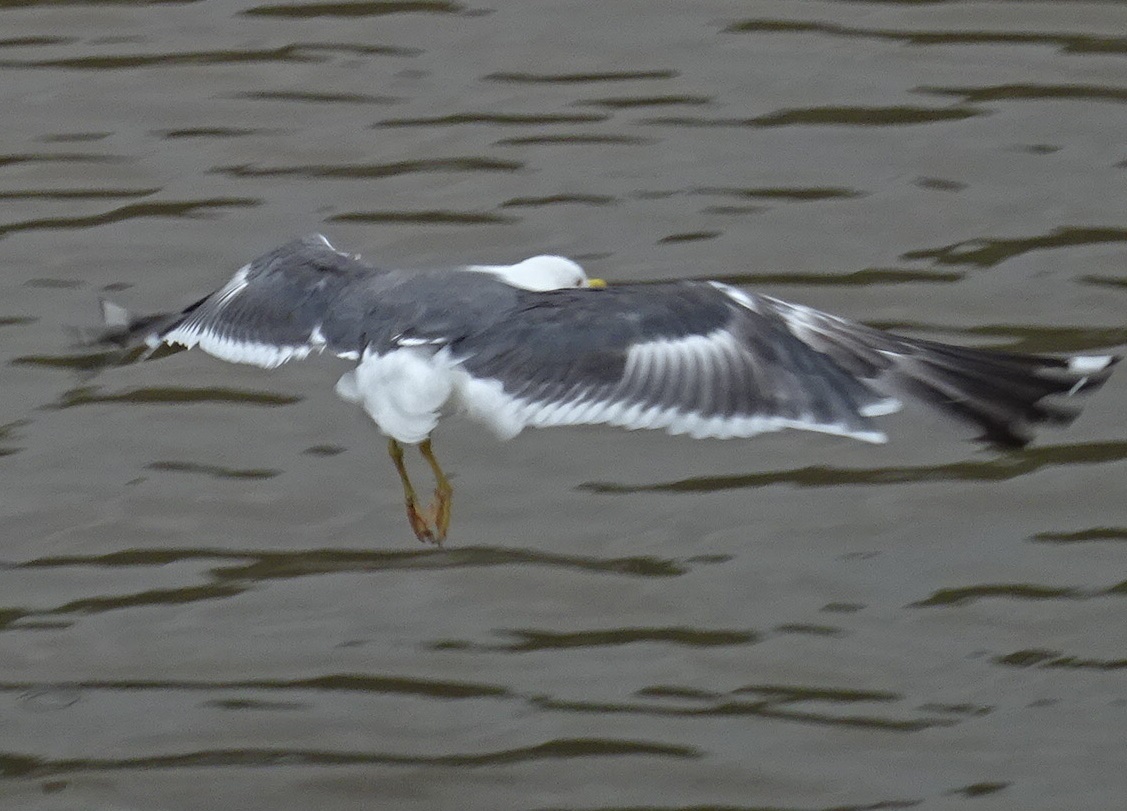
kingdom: Animalia
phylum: Chordata
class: Aves
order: Charadriiformes
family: Laridae
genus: Larus
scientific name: Larus fuscus
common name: Lesser black-backed gull
